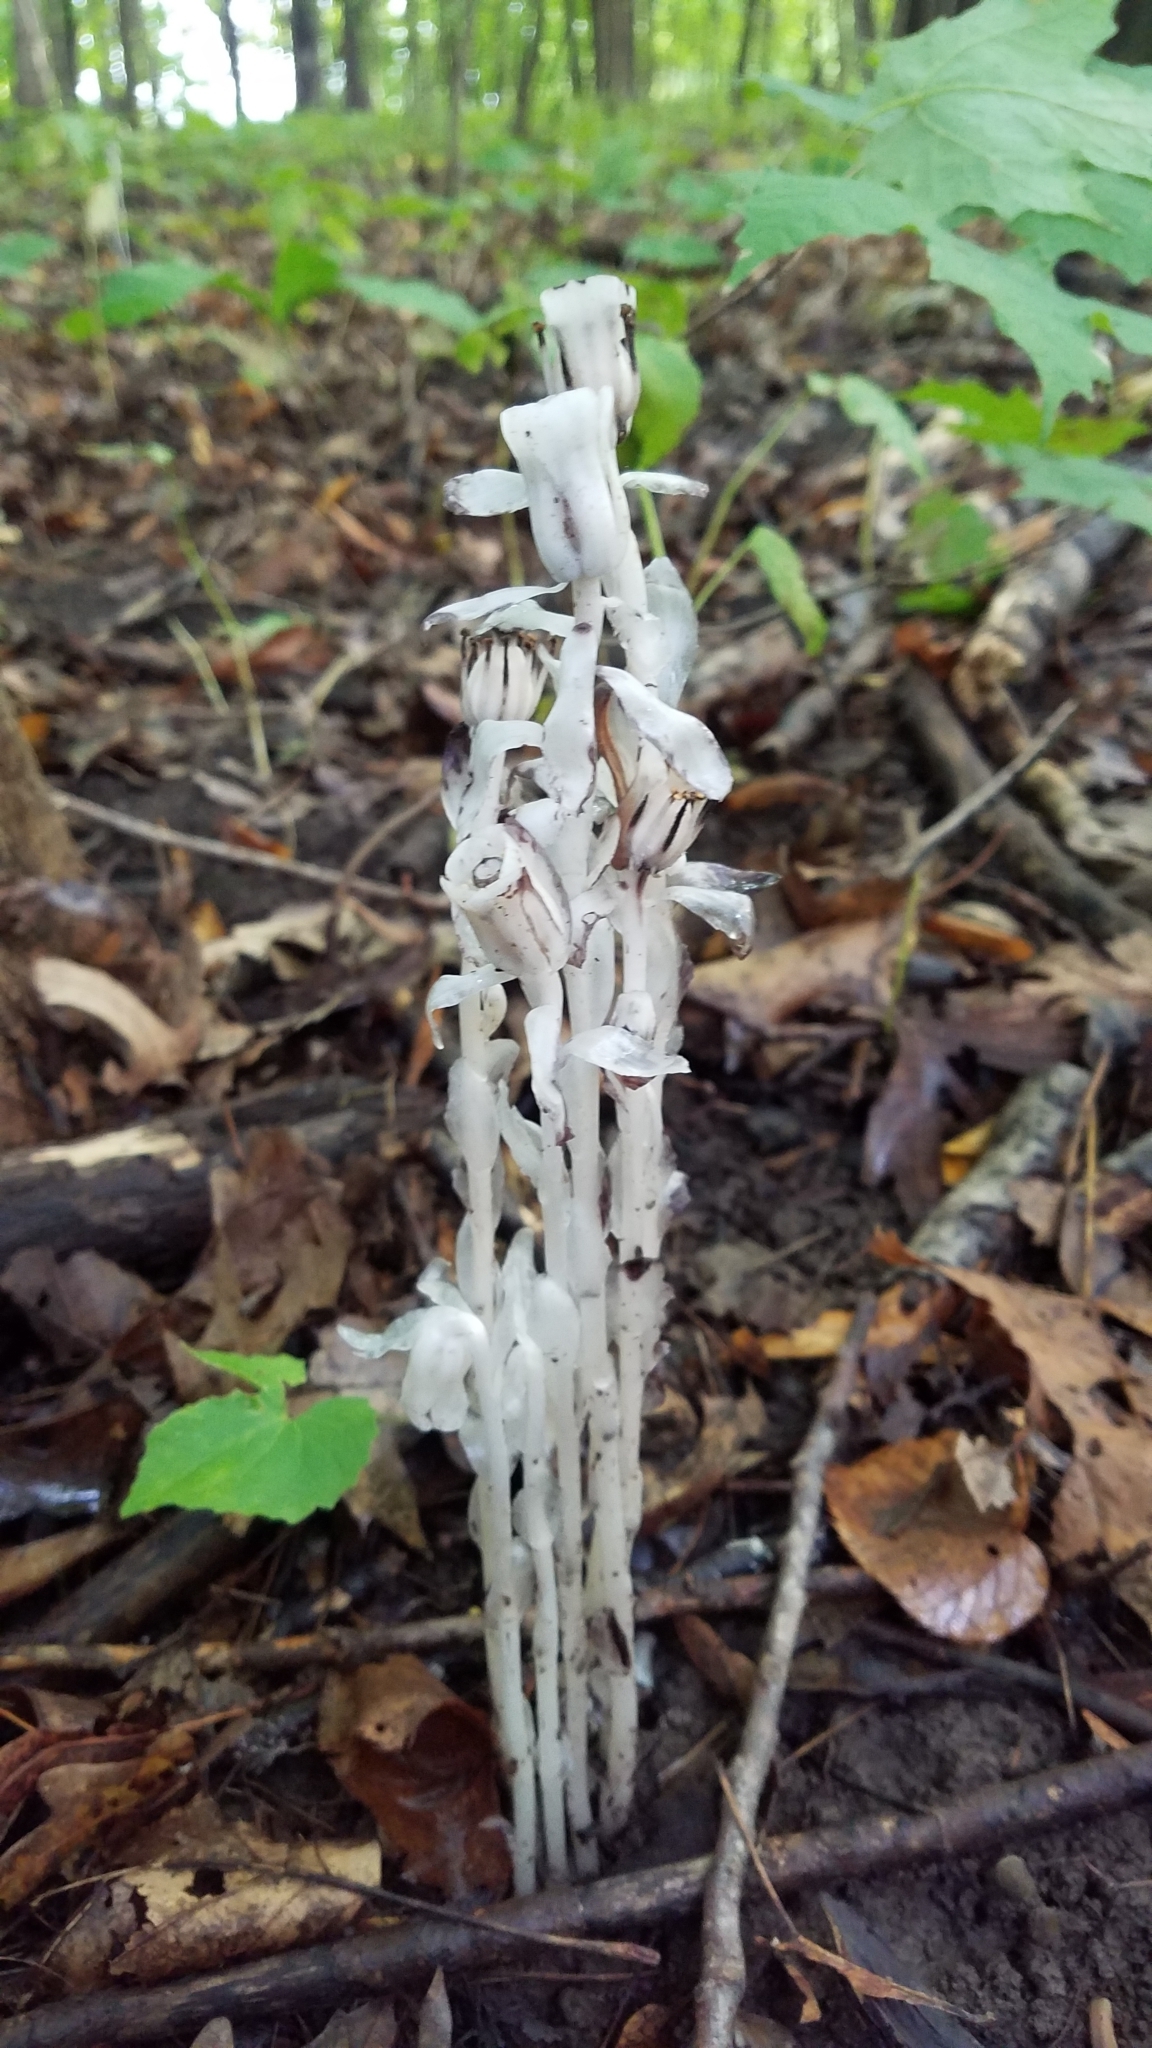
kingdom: Plantae
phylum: Tracheophyta
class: Magnoliopsida
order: Ericales
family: Ericaceae
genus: Monotropa
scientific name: Monotropa uniflora
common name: Convulsion root
